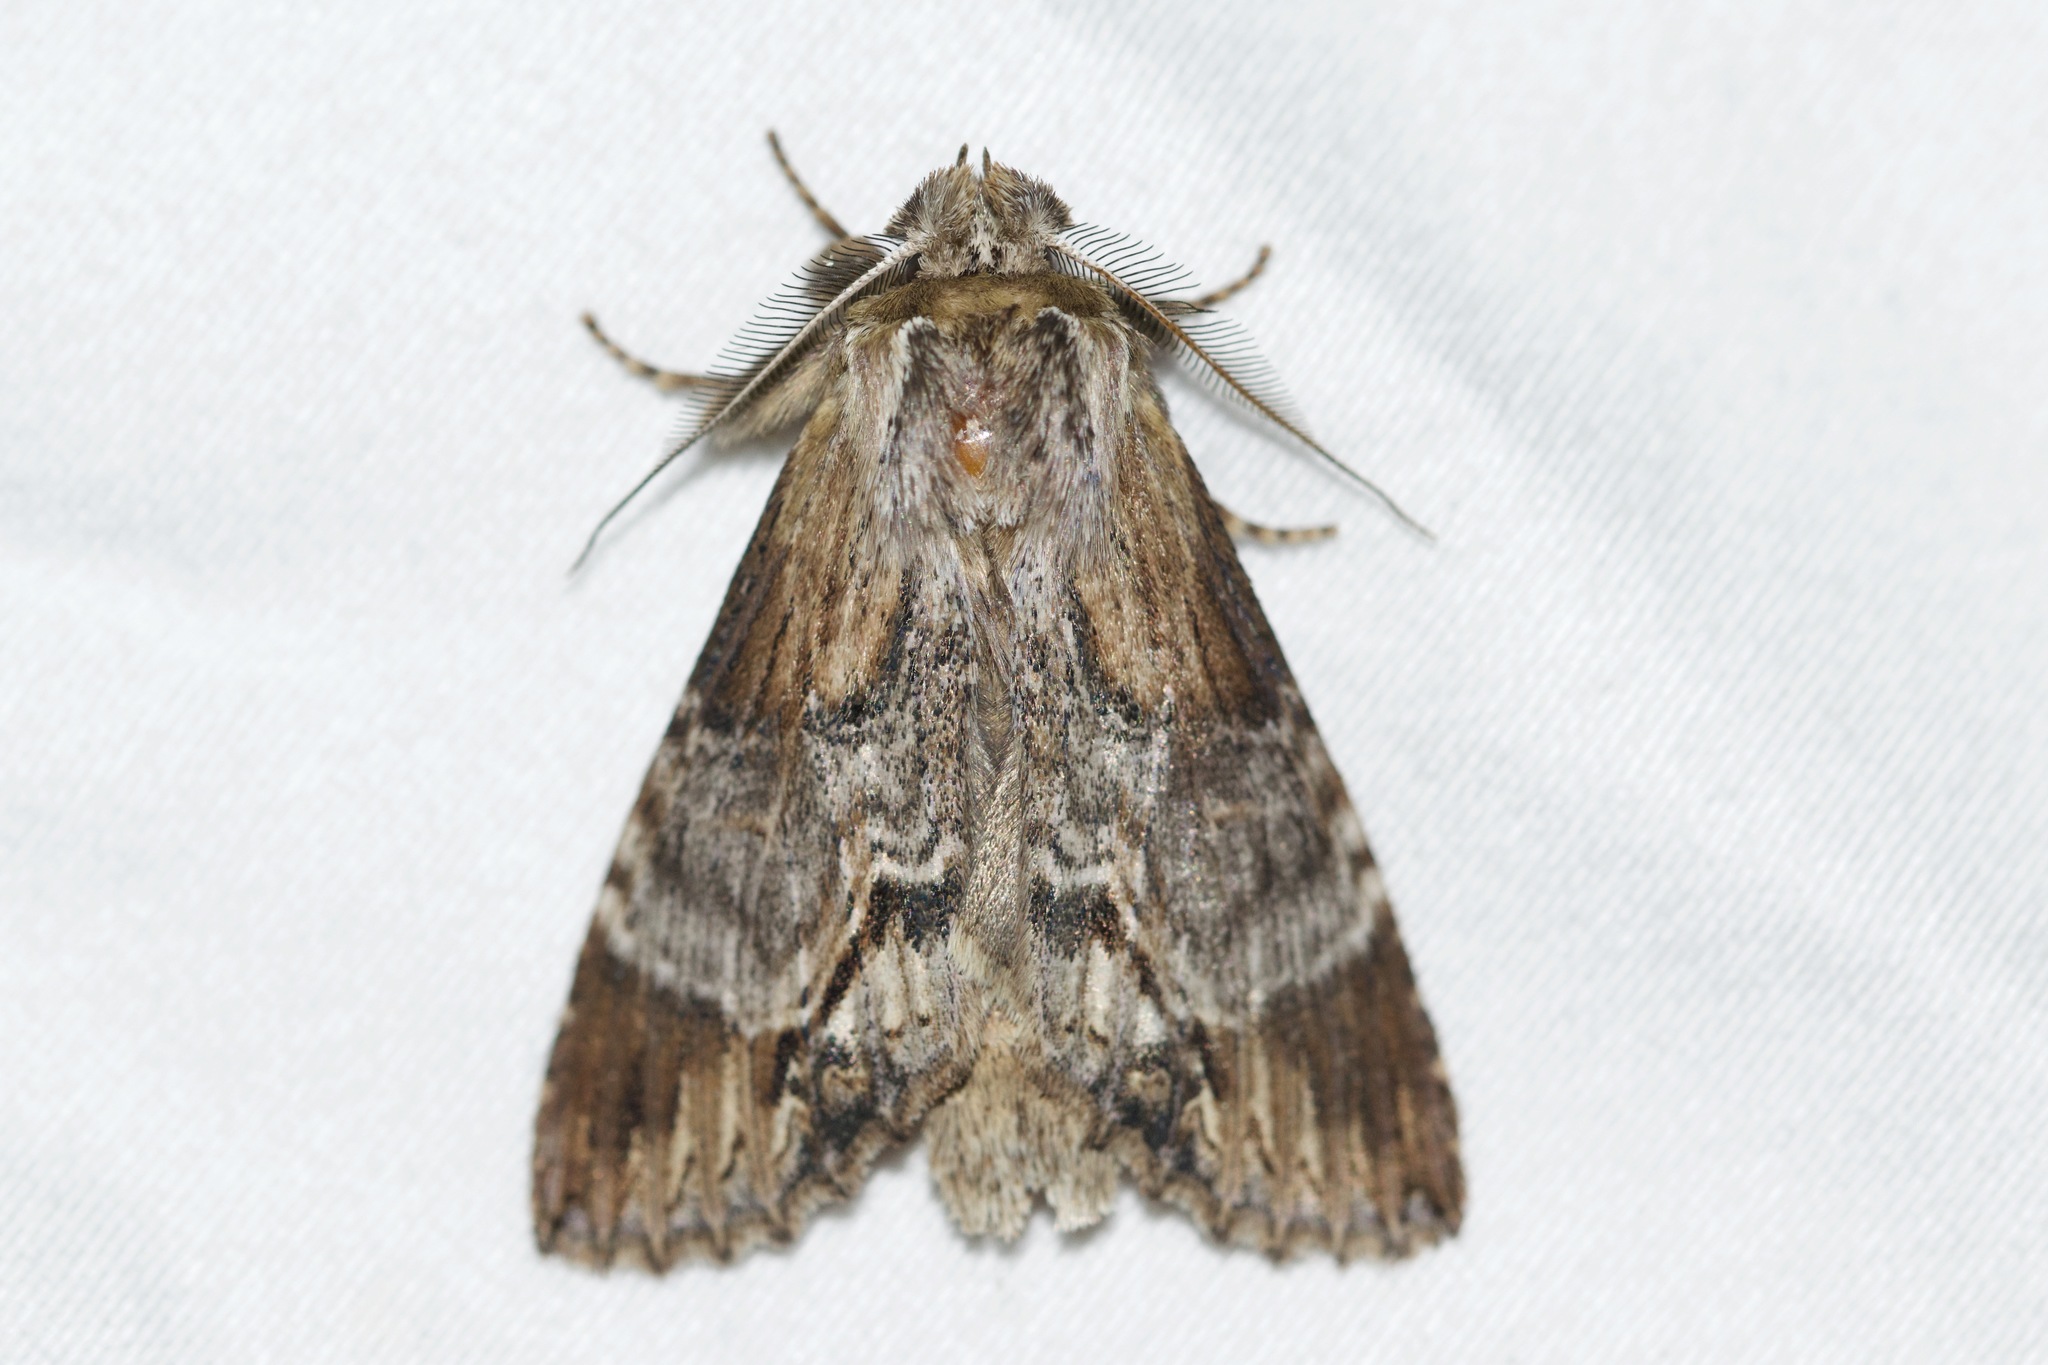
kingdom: Animalia
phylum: Arthropoda
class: Insecta
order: Lepidoptera
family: Notodontidae
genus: Dasylophia
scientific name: Dasylophia thyatiroides
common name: Gray-patched prominent
